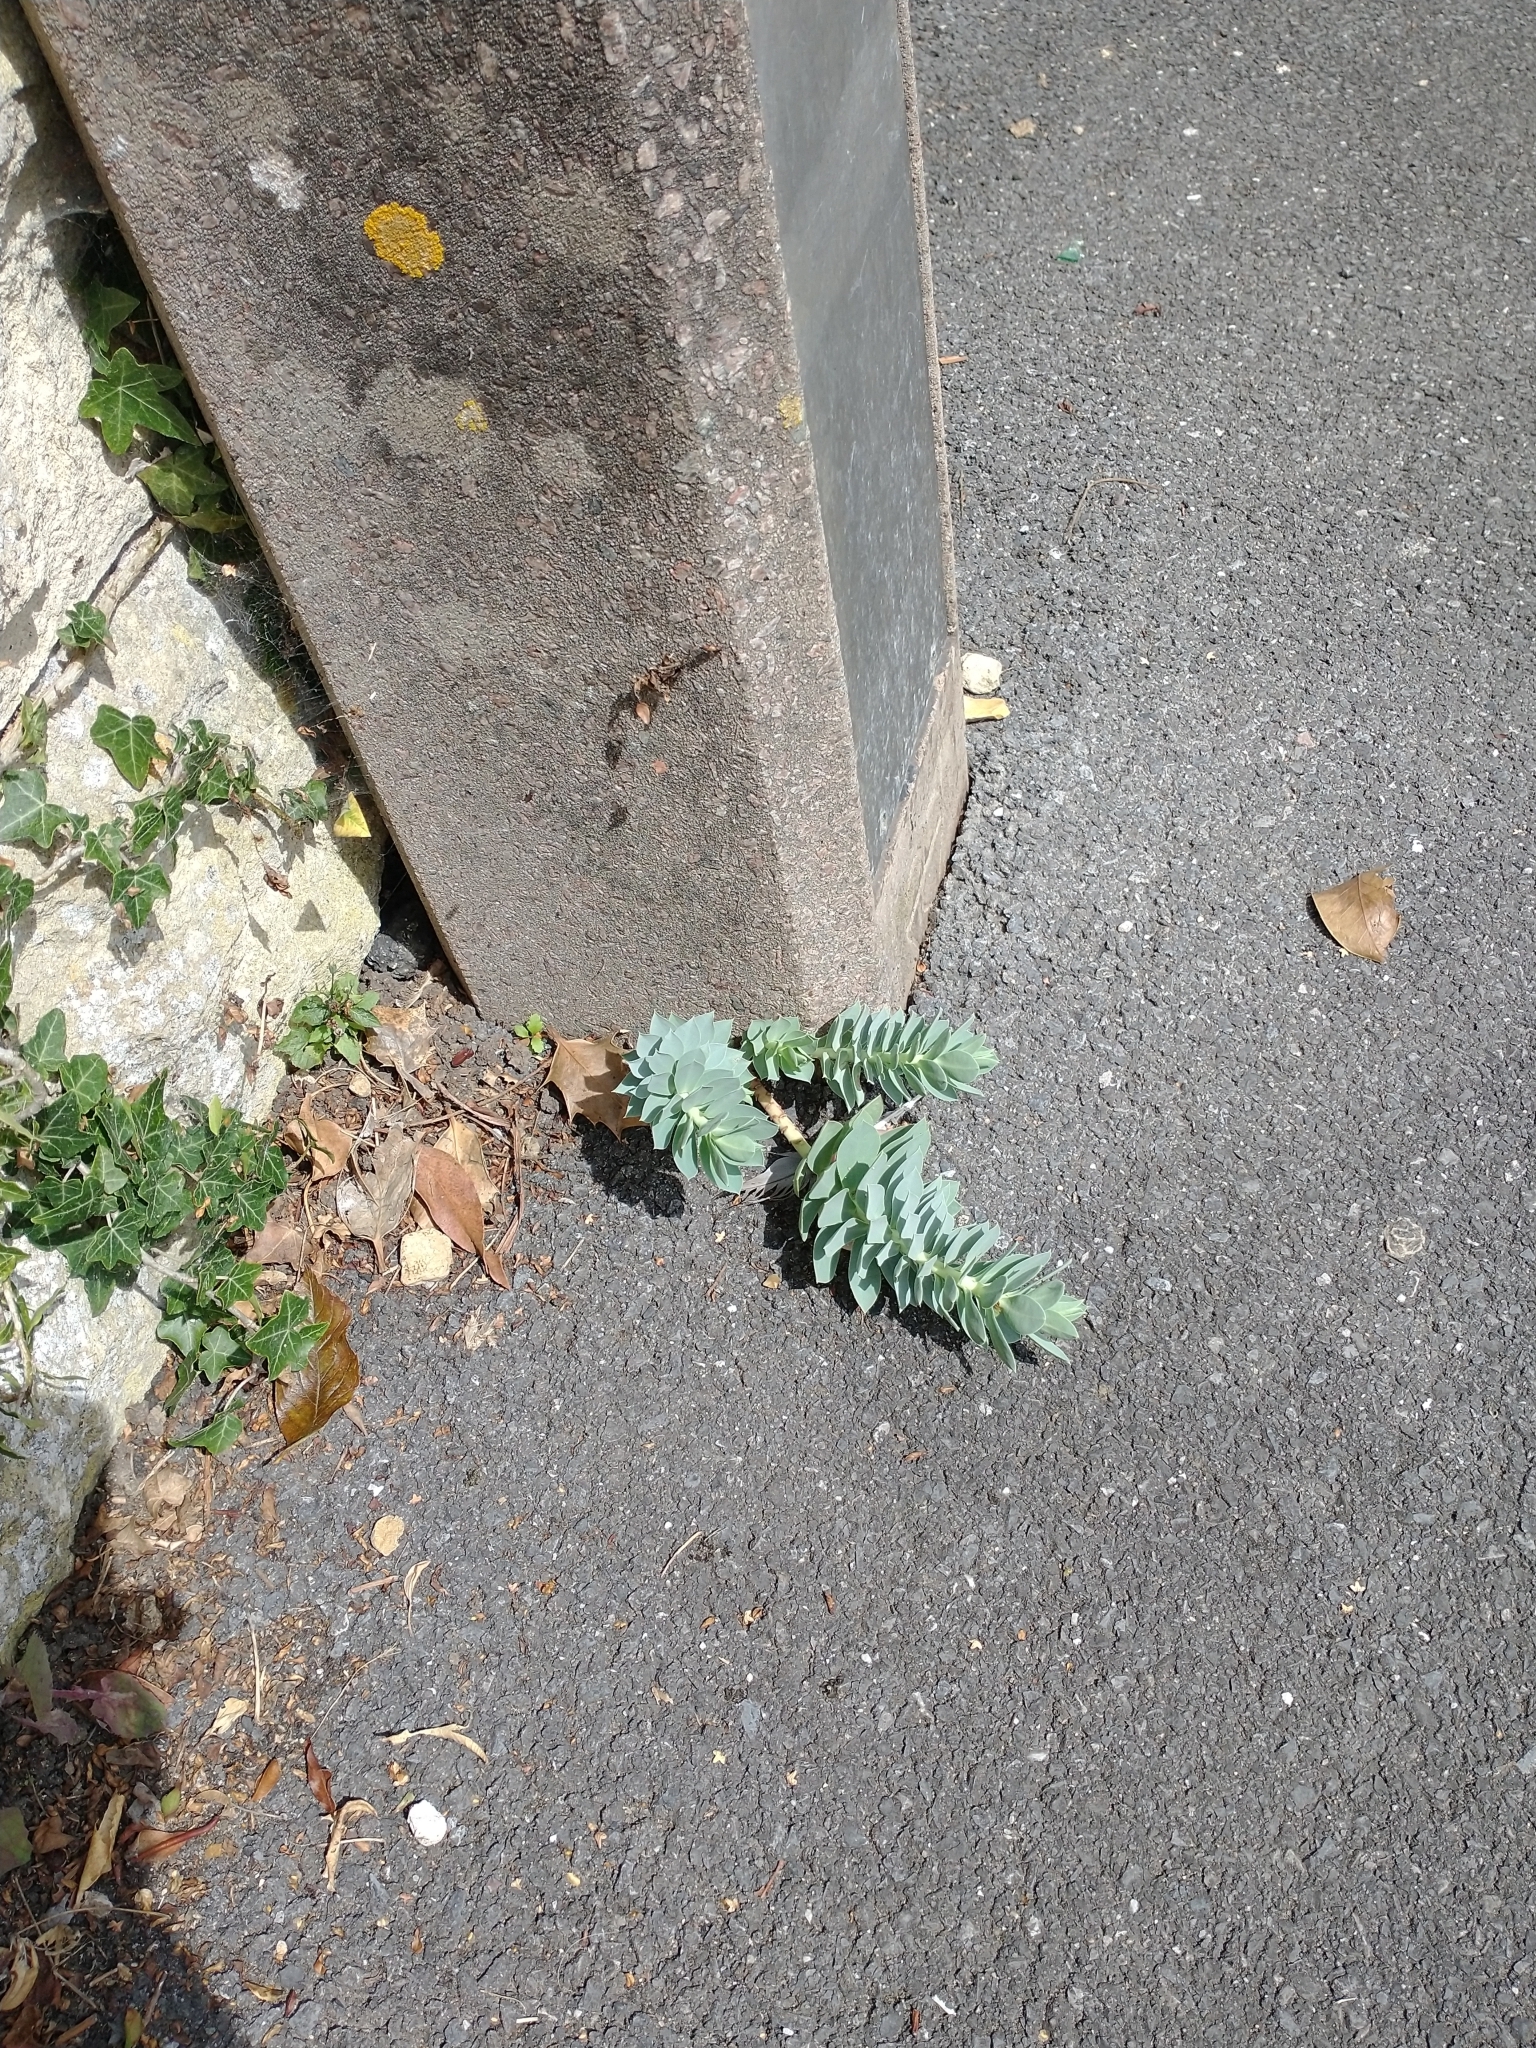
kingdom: Plantae
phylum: Tracheophyta
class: Magnoliopsida
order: Malpighiales
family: Euphorbiaceae
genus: Euphorbia
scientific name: Euphorbia myrsinites
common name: Myrtle spurge
